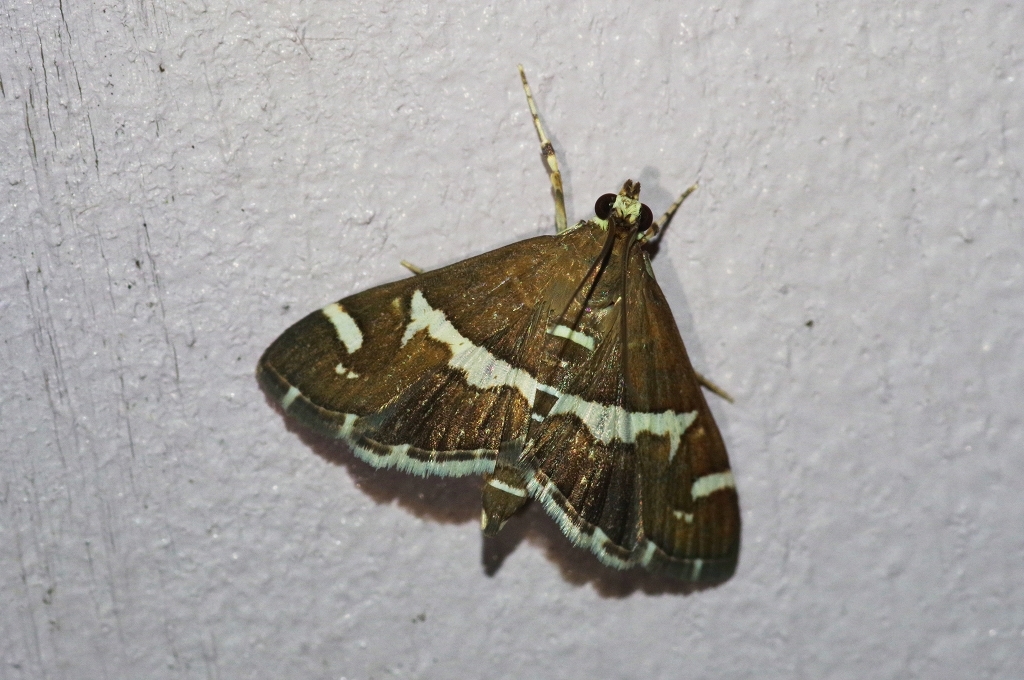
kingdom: Animalia
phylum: Arthropoda
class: Insecta
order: Lepidoptera
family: Crambidae
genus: Spoladea
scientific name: Spoladea recurvalis
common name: Beet webworm moth
